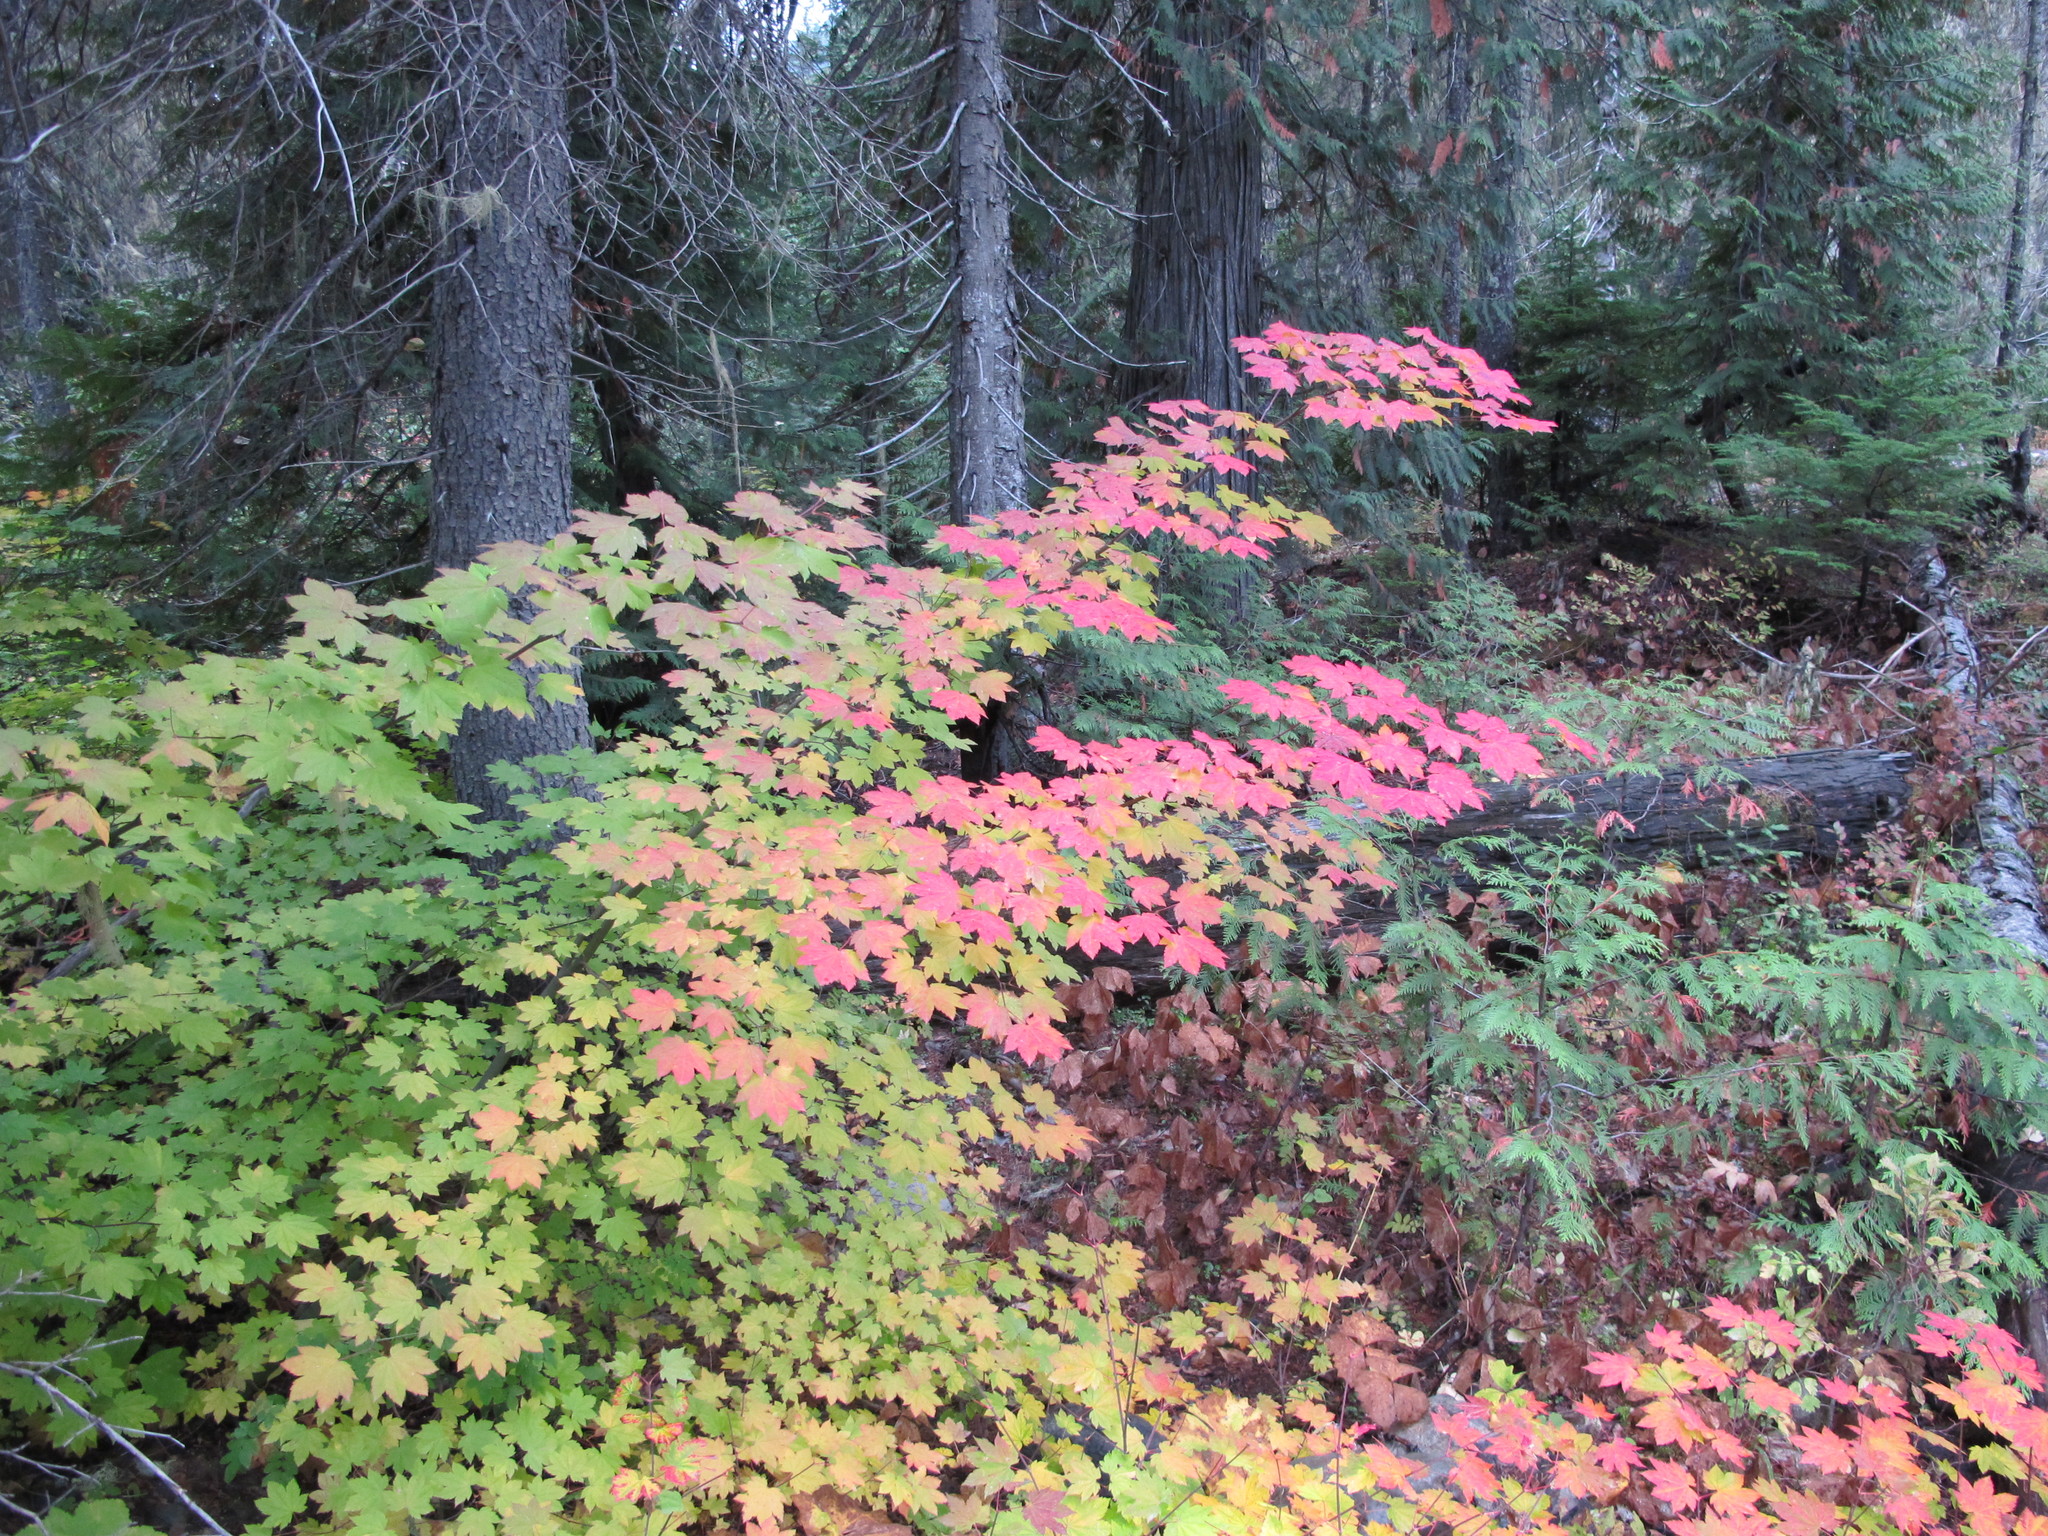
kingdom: Plantae
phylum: Tracheophyta
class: Magnoliopsida
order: Sapindales
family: Sapindaceae
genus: Acer
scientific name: Acer circinatum
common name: Vine maple
